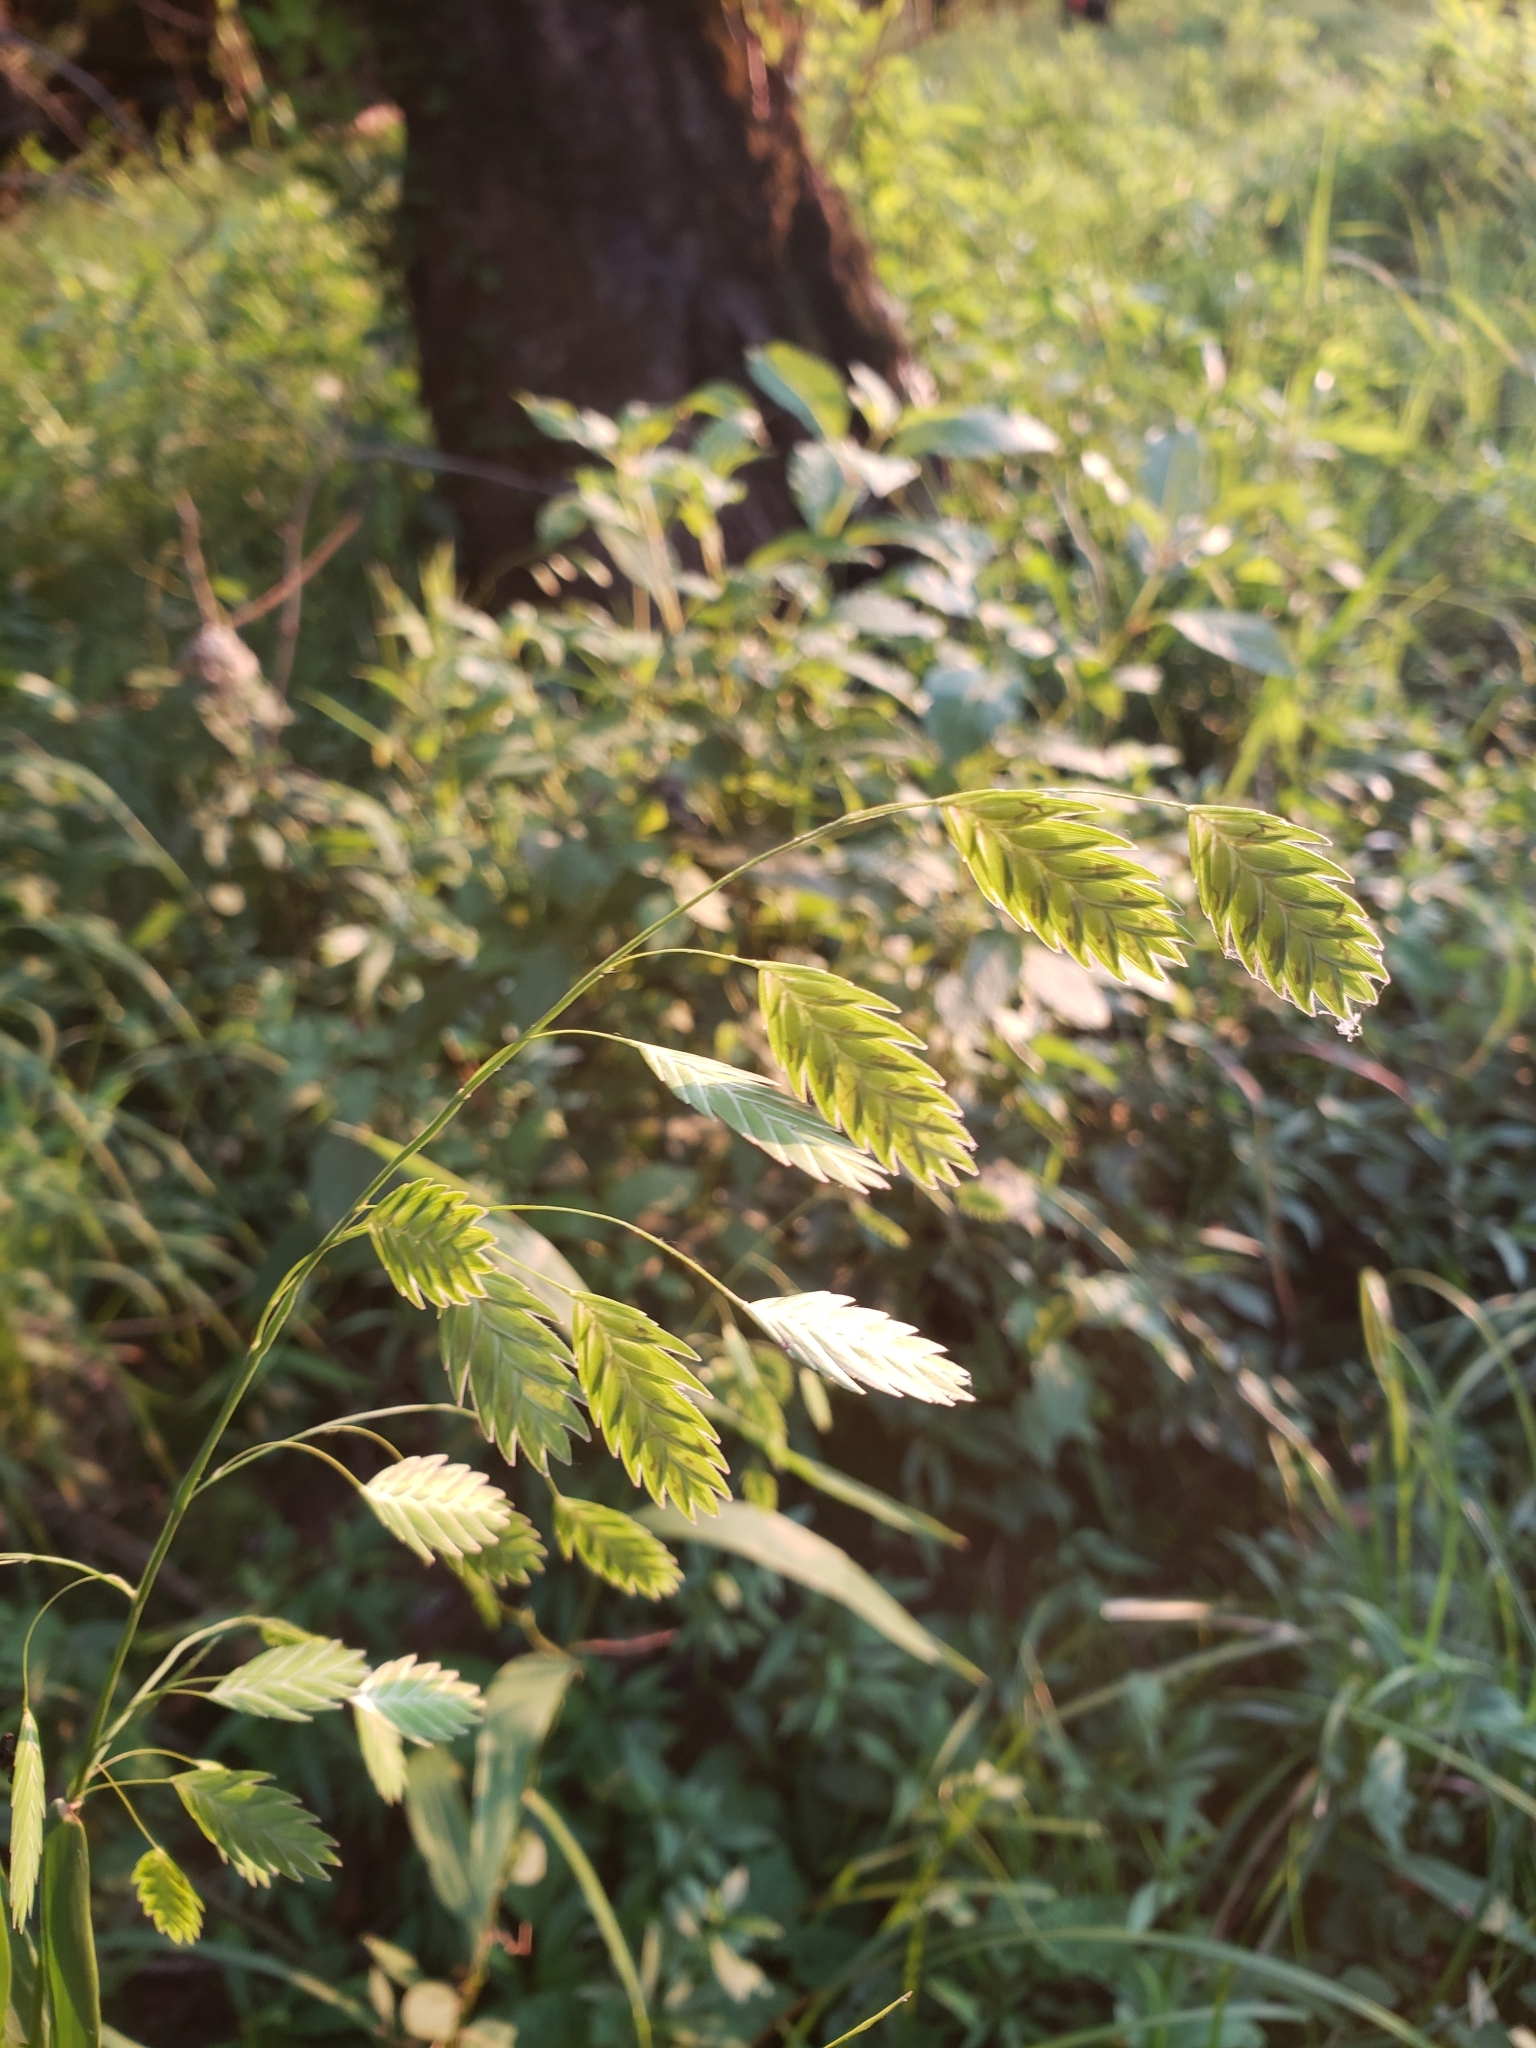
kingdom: Plantae
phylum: Tracheophyta
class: Liliopsida
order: Poales
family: Poaceae
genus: Chasmanthium
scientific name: Chasmanthium latifolium
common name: Broad-leaved chasmanthium
